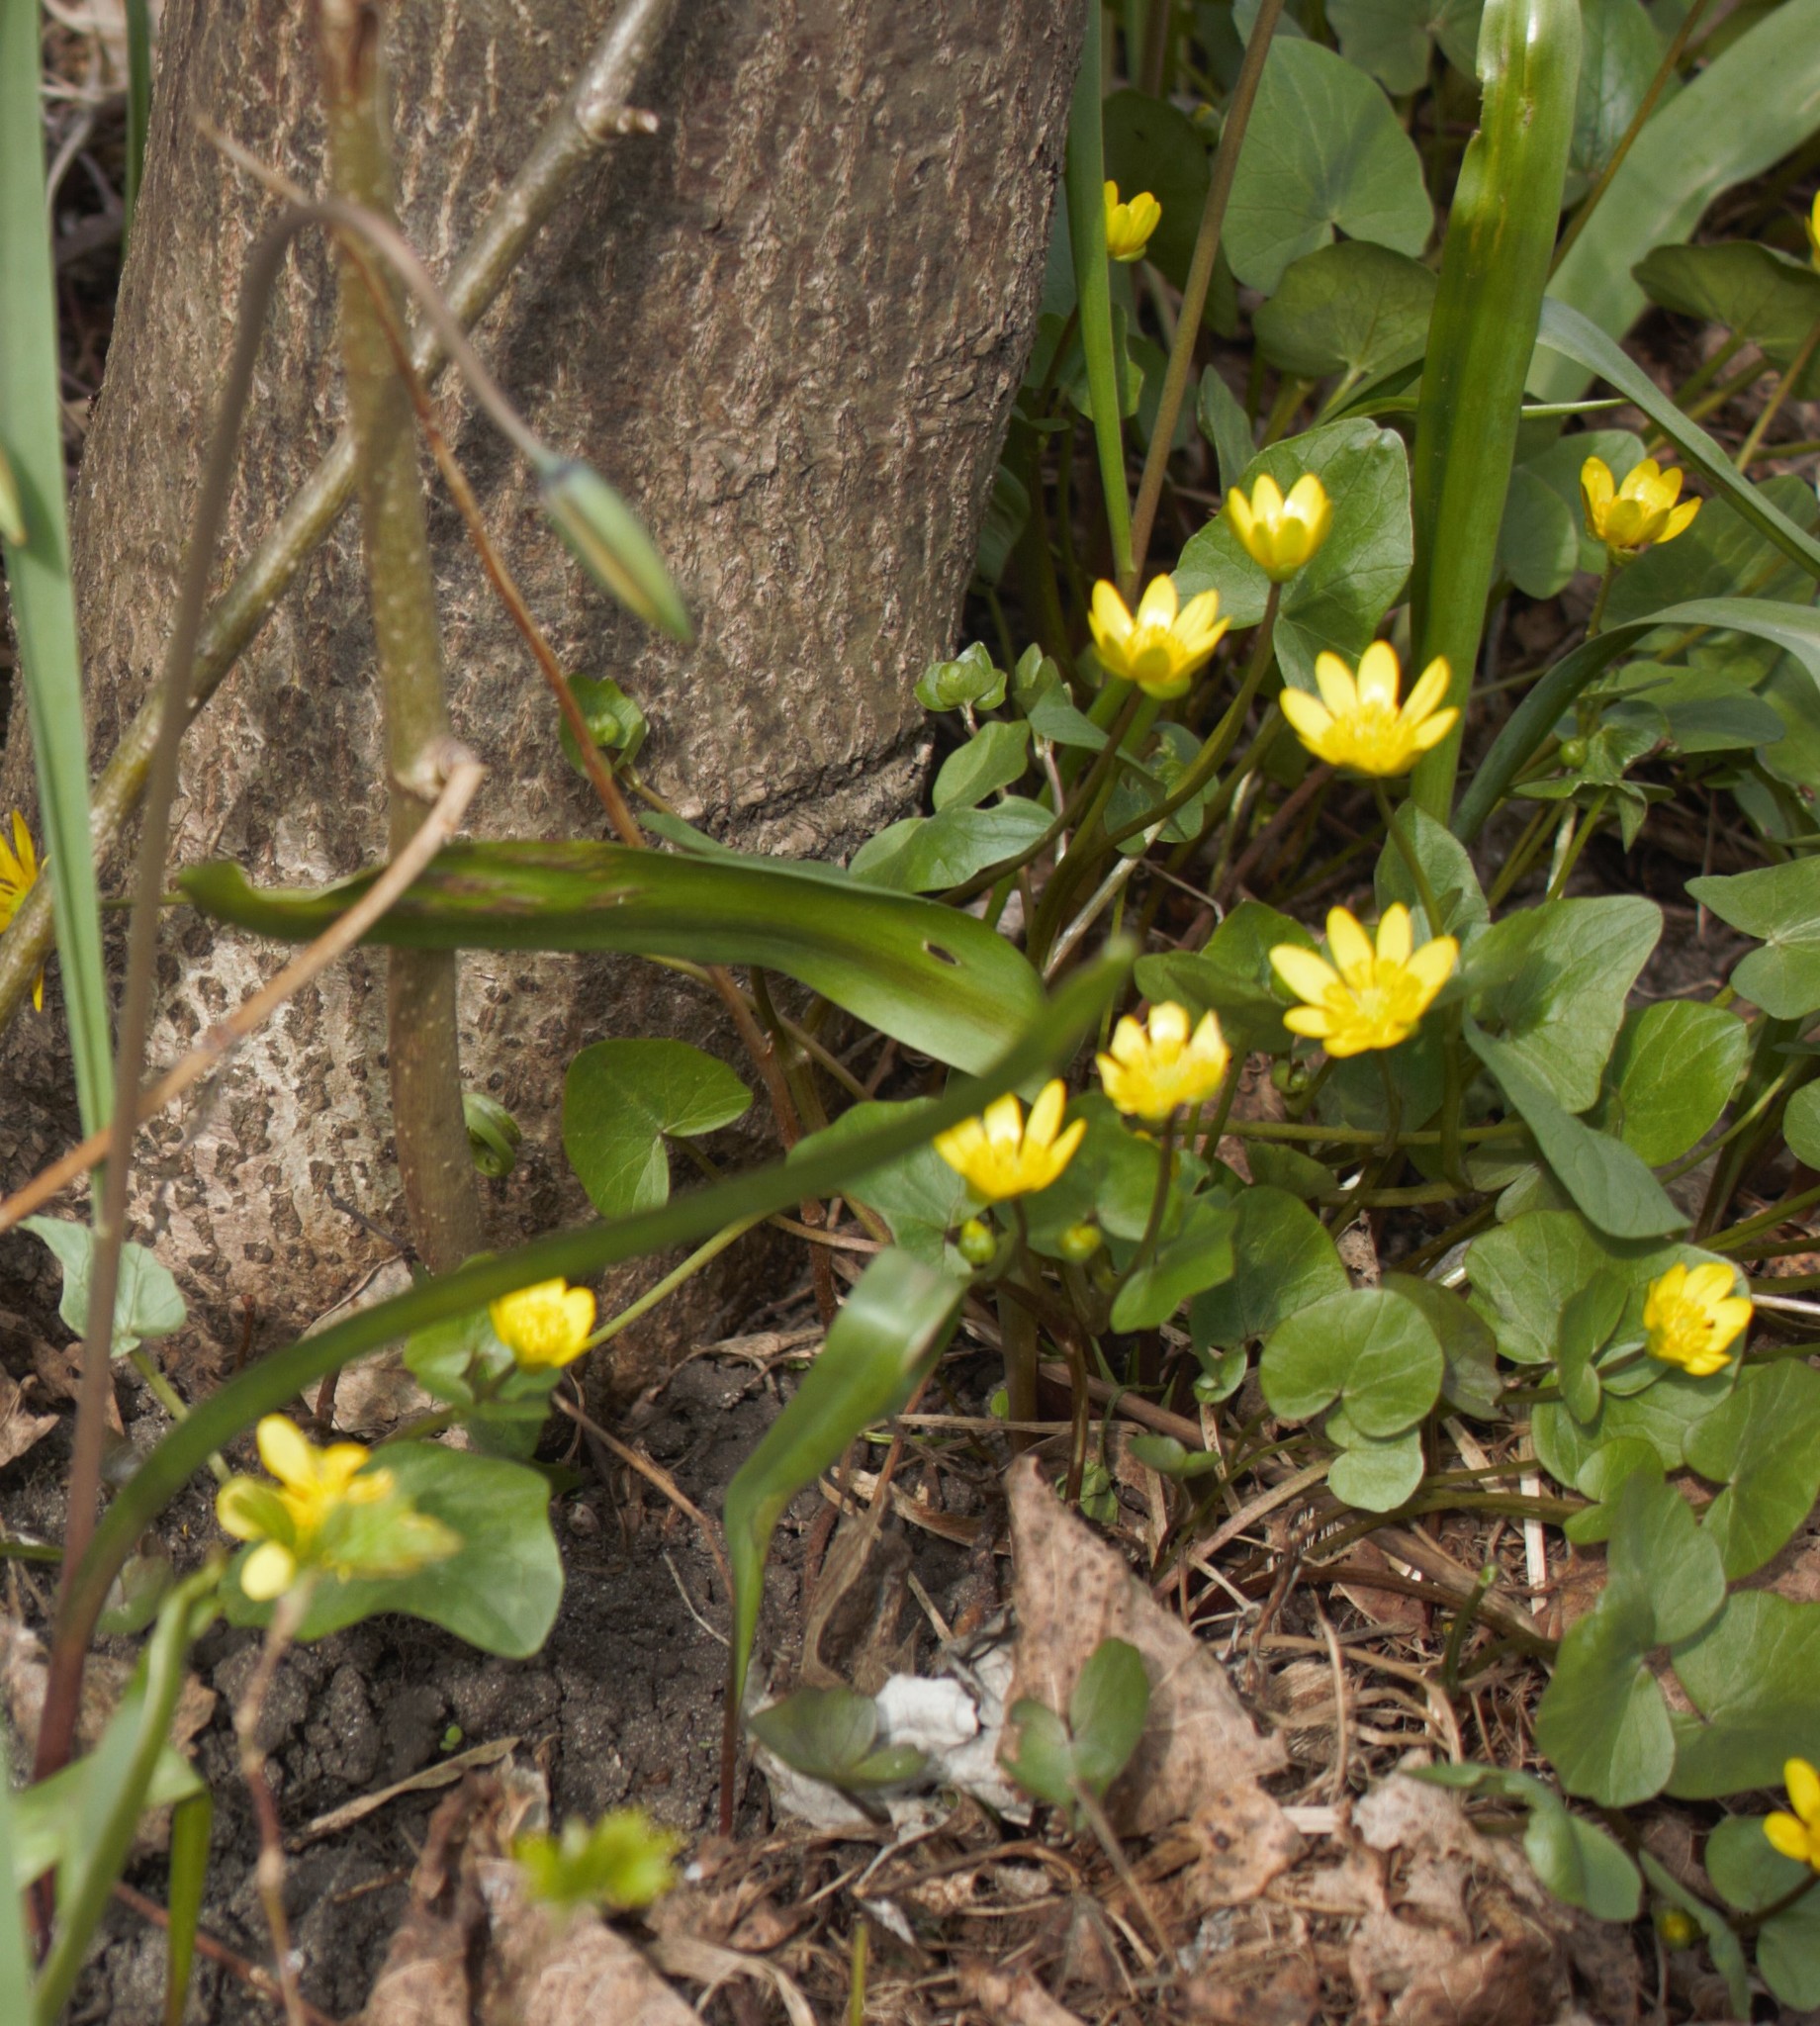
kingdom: Plantae
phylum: Tracheophyta
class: Magnoliopsida
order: Ranunculales
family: Ranunculaceae
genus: Ficaria
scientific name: Ficaria verna
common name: Lesser celandine
